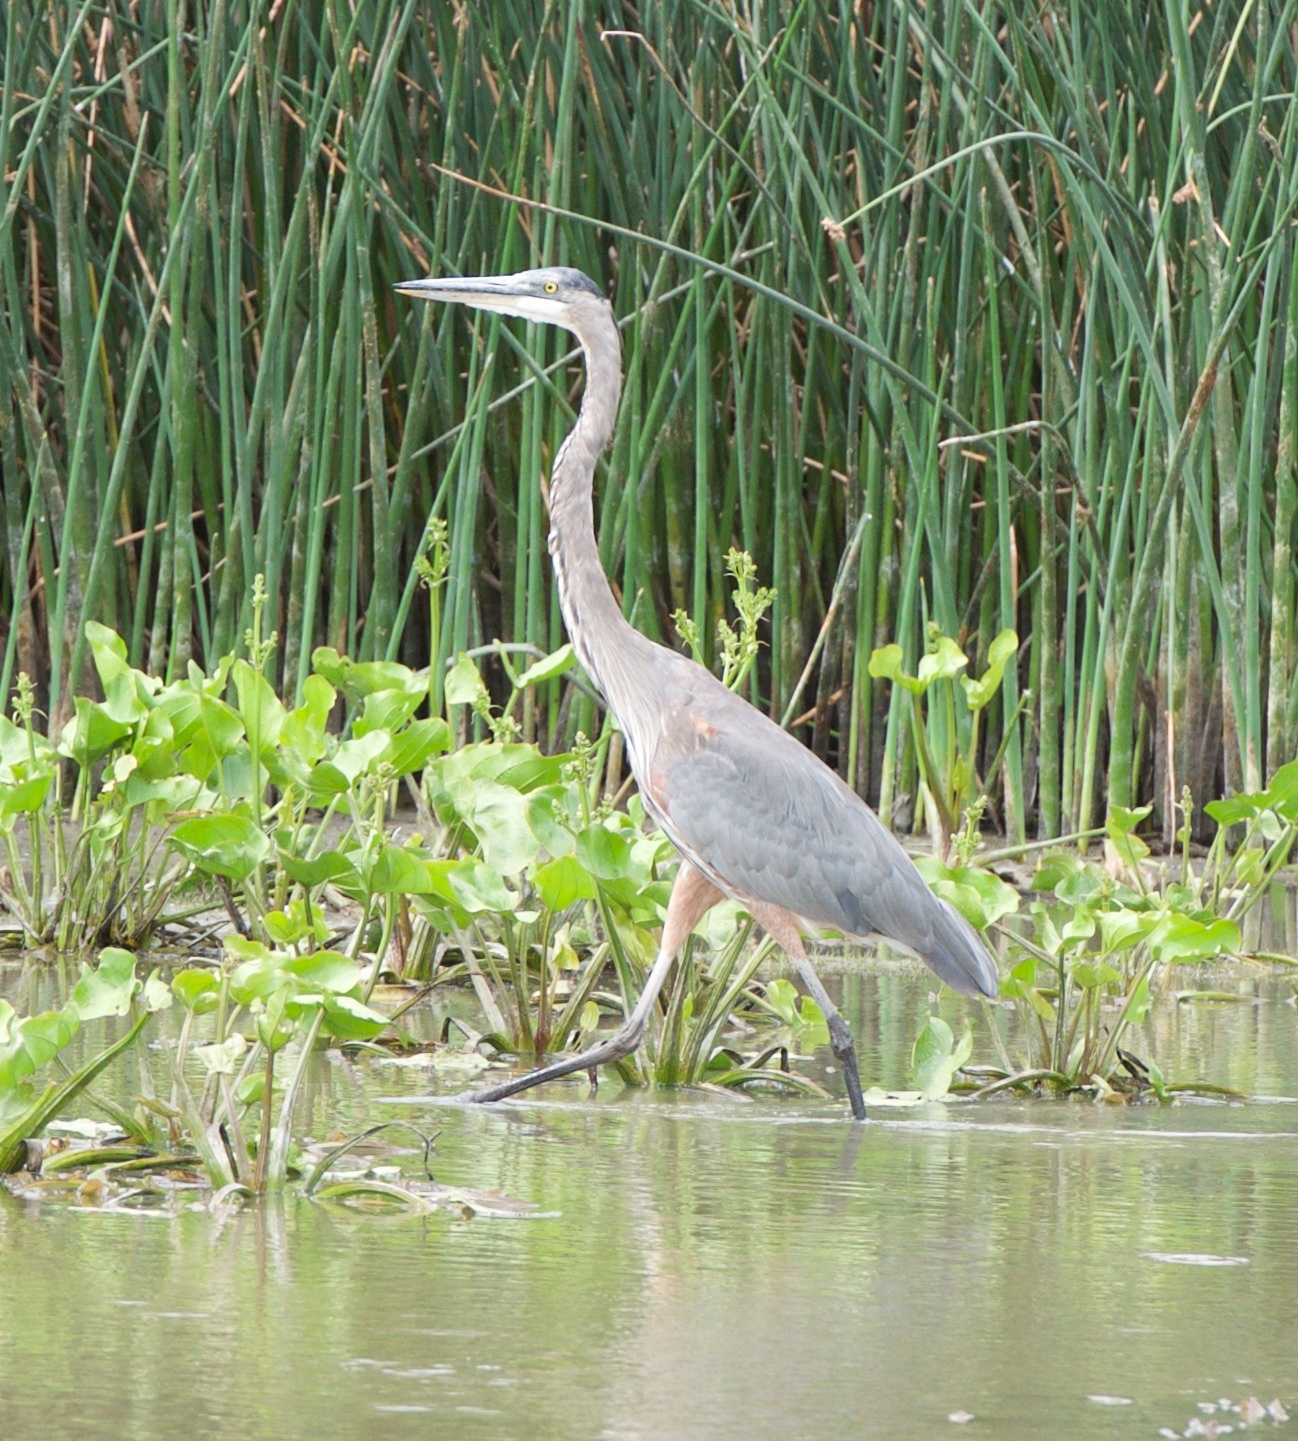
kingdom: Animalia
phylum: Chordata
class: Aves
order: Pelecaniformes
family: Ardeidae
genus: Ardea
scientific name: Ardea herodias
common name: Great blue heron
